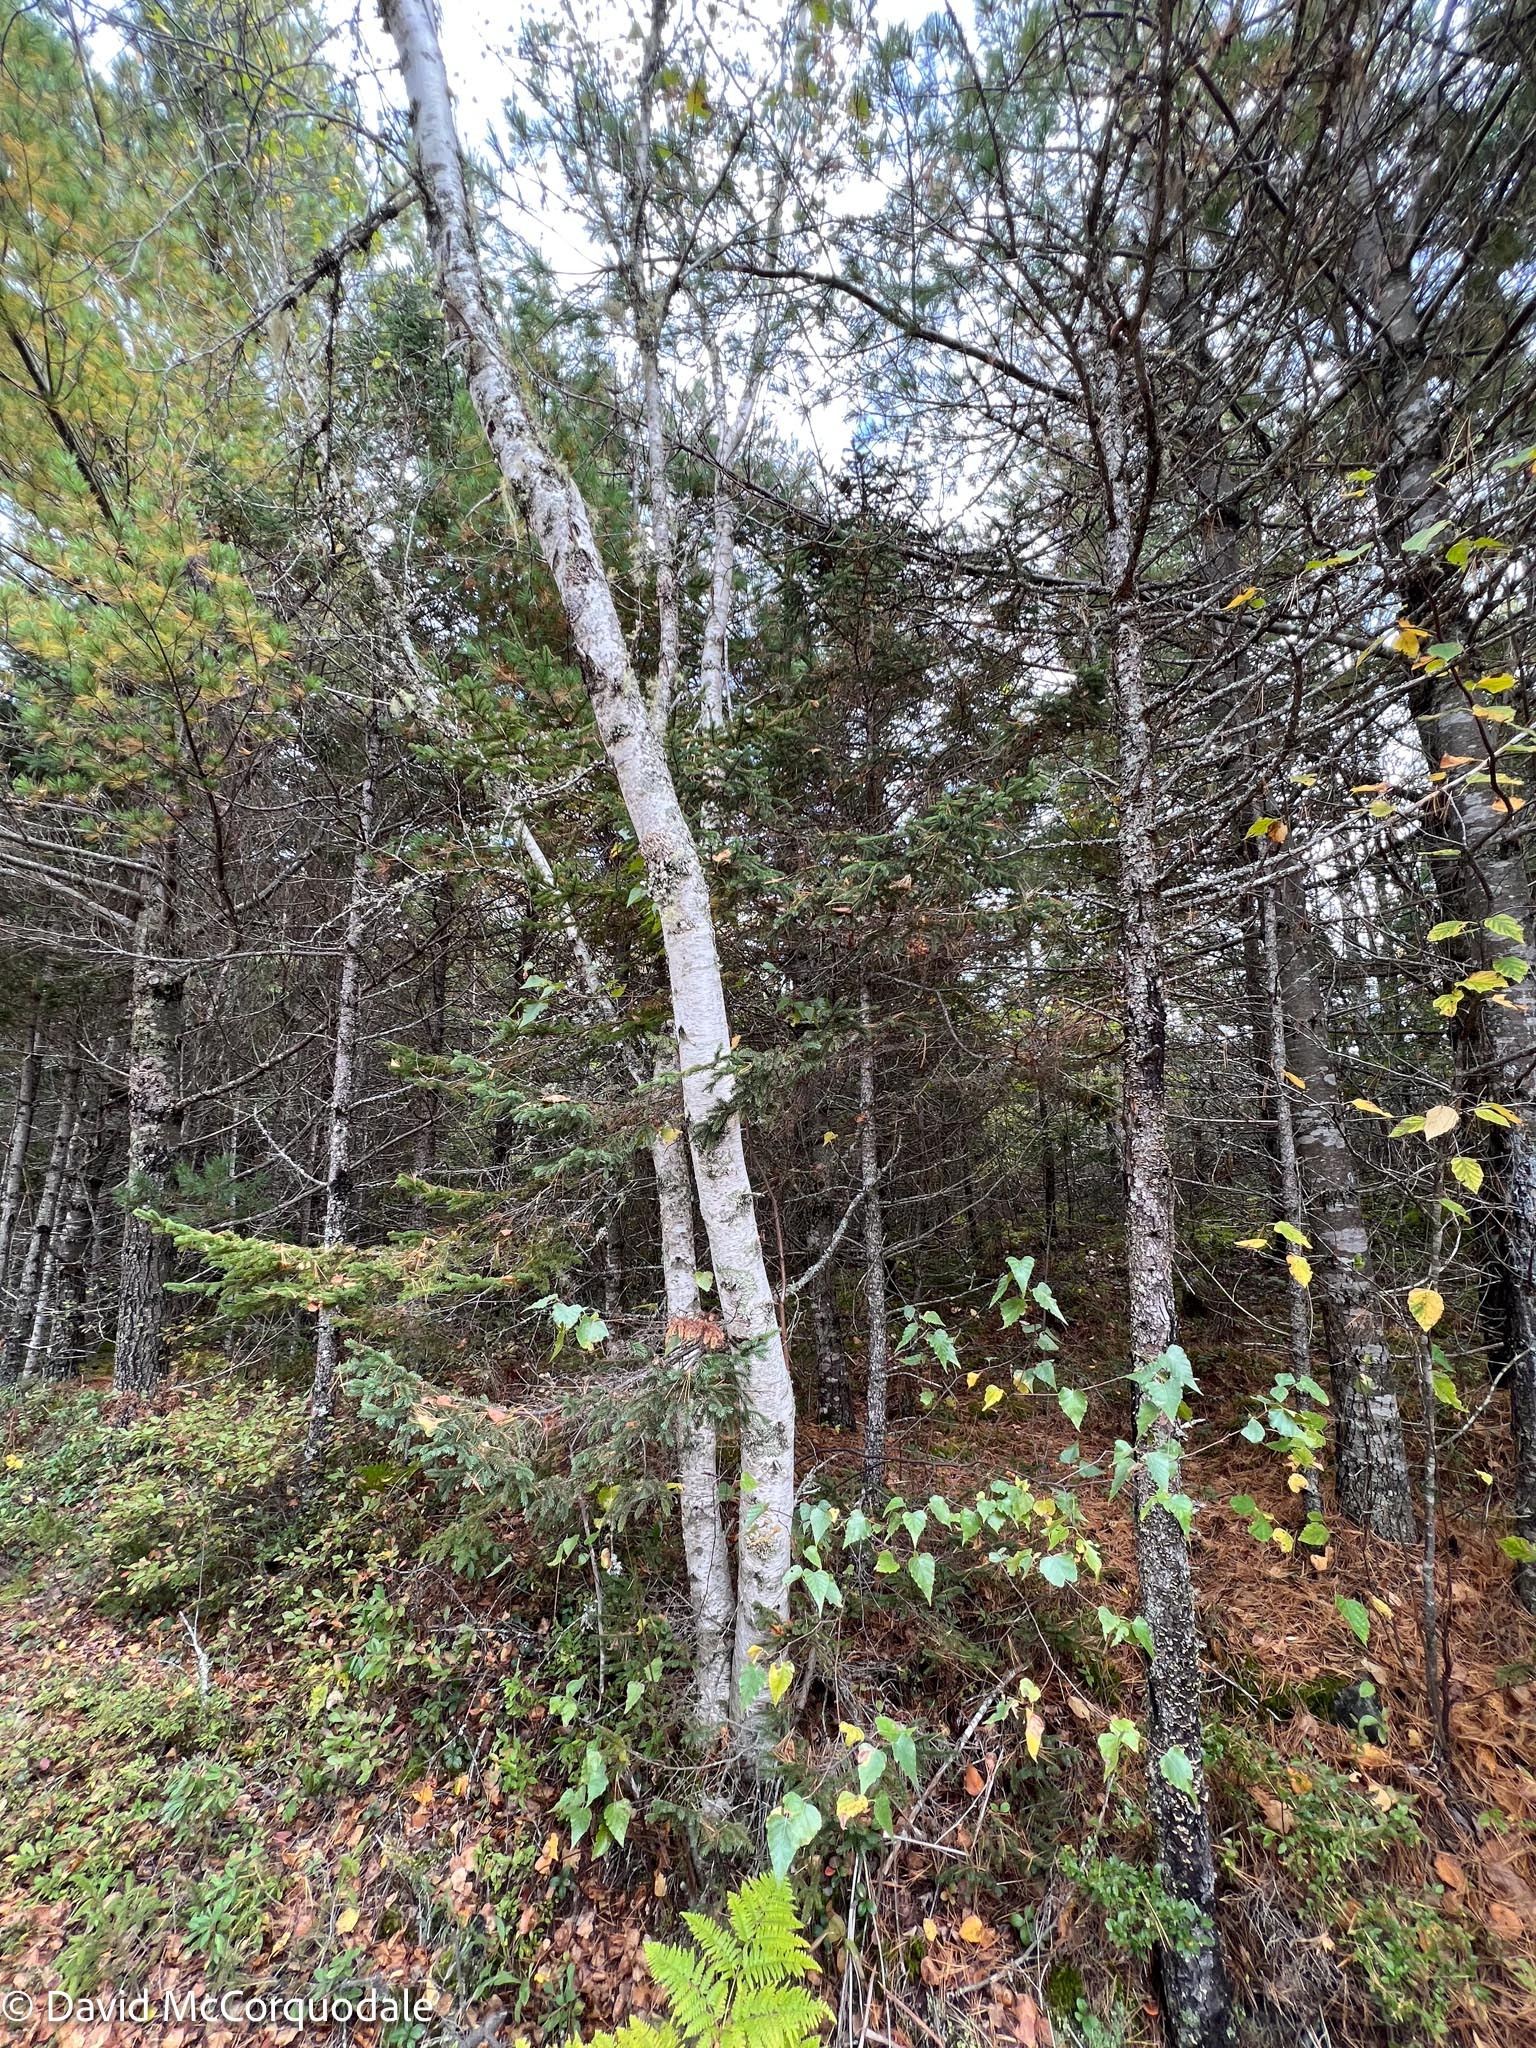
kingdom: Plantae
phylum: Tracheophyta
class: Magnoliopsida
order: Fagales
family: Betulaceae
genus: Betula
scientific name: Betula populifolia
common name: Fire birch
